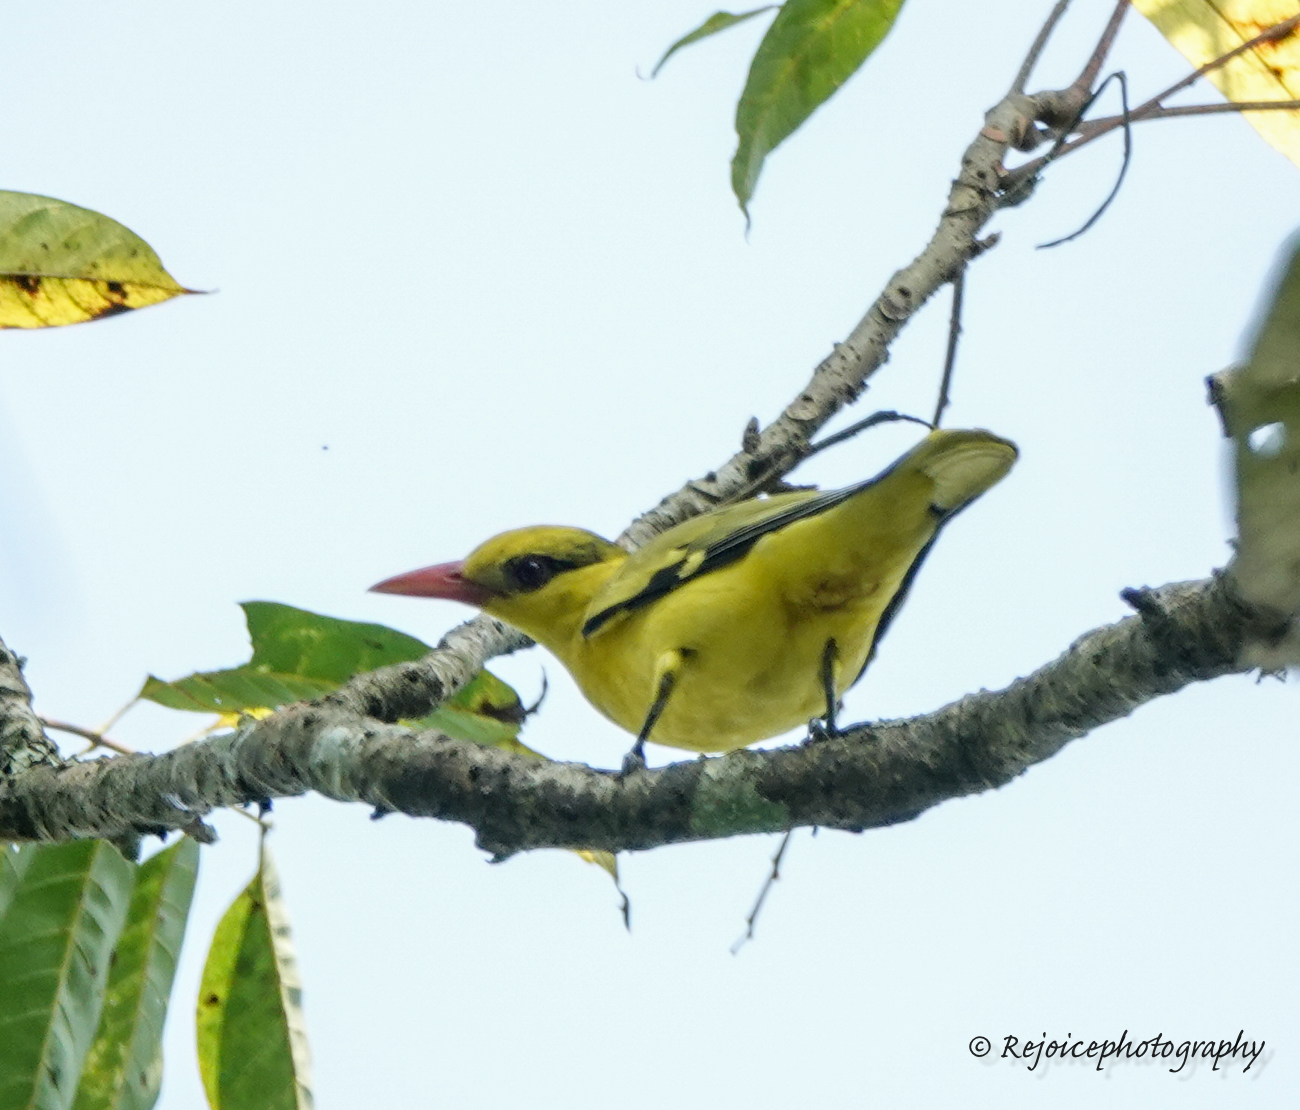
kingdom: Animalia
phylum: Chordata
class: Aves
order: Passeriformes
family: Oriolidae
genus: Oriolus
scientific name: Oriolus chinensis
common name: Black-naped oriole
